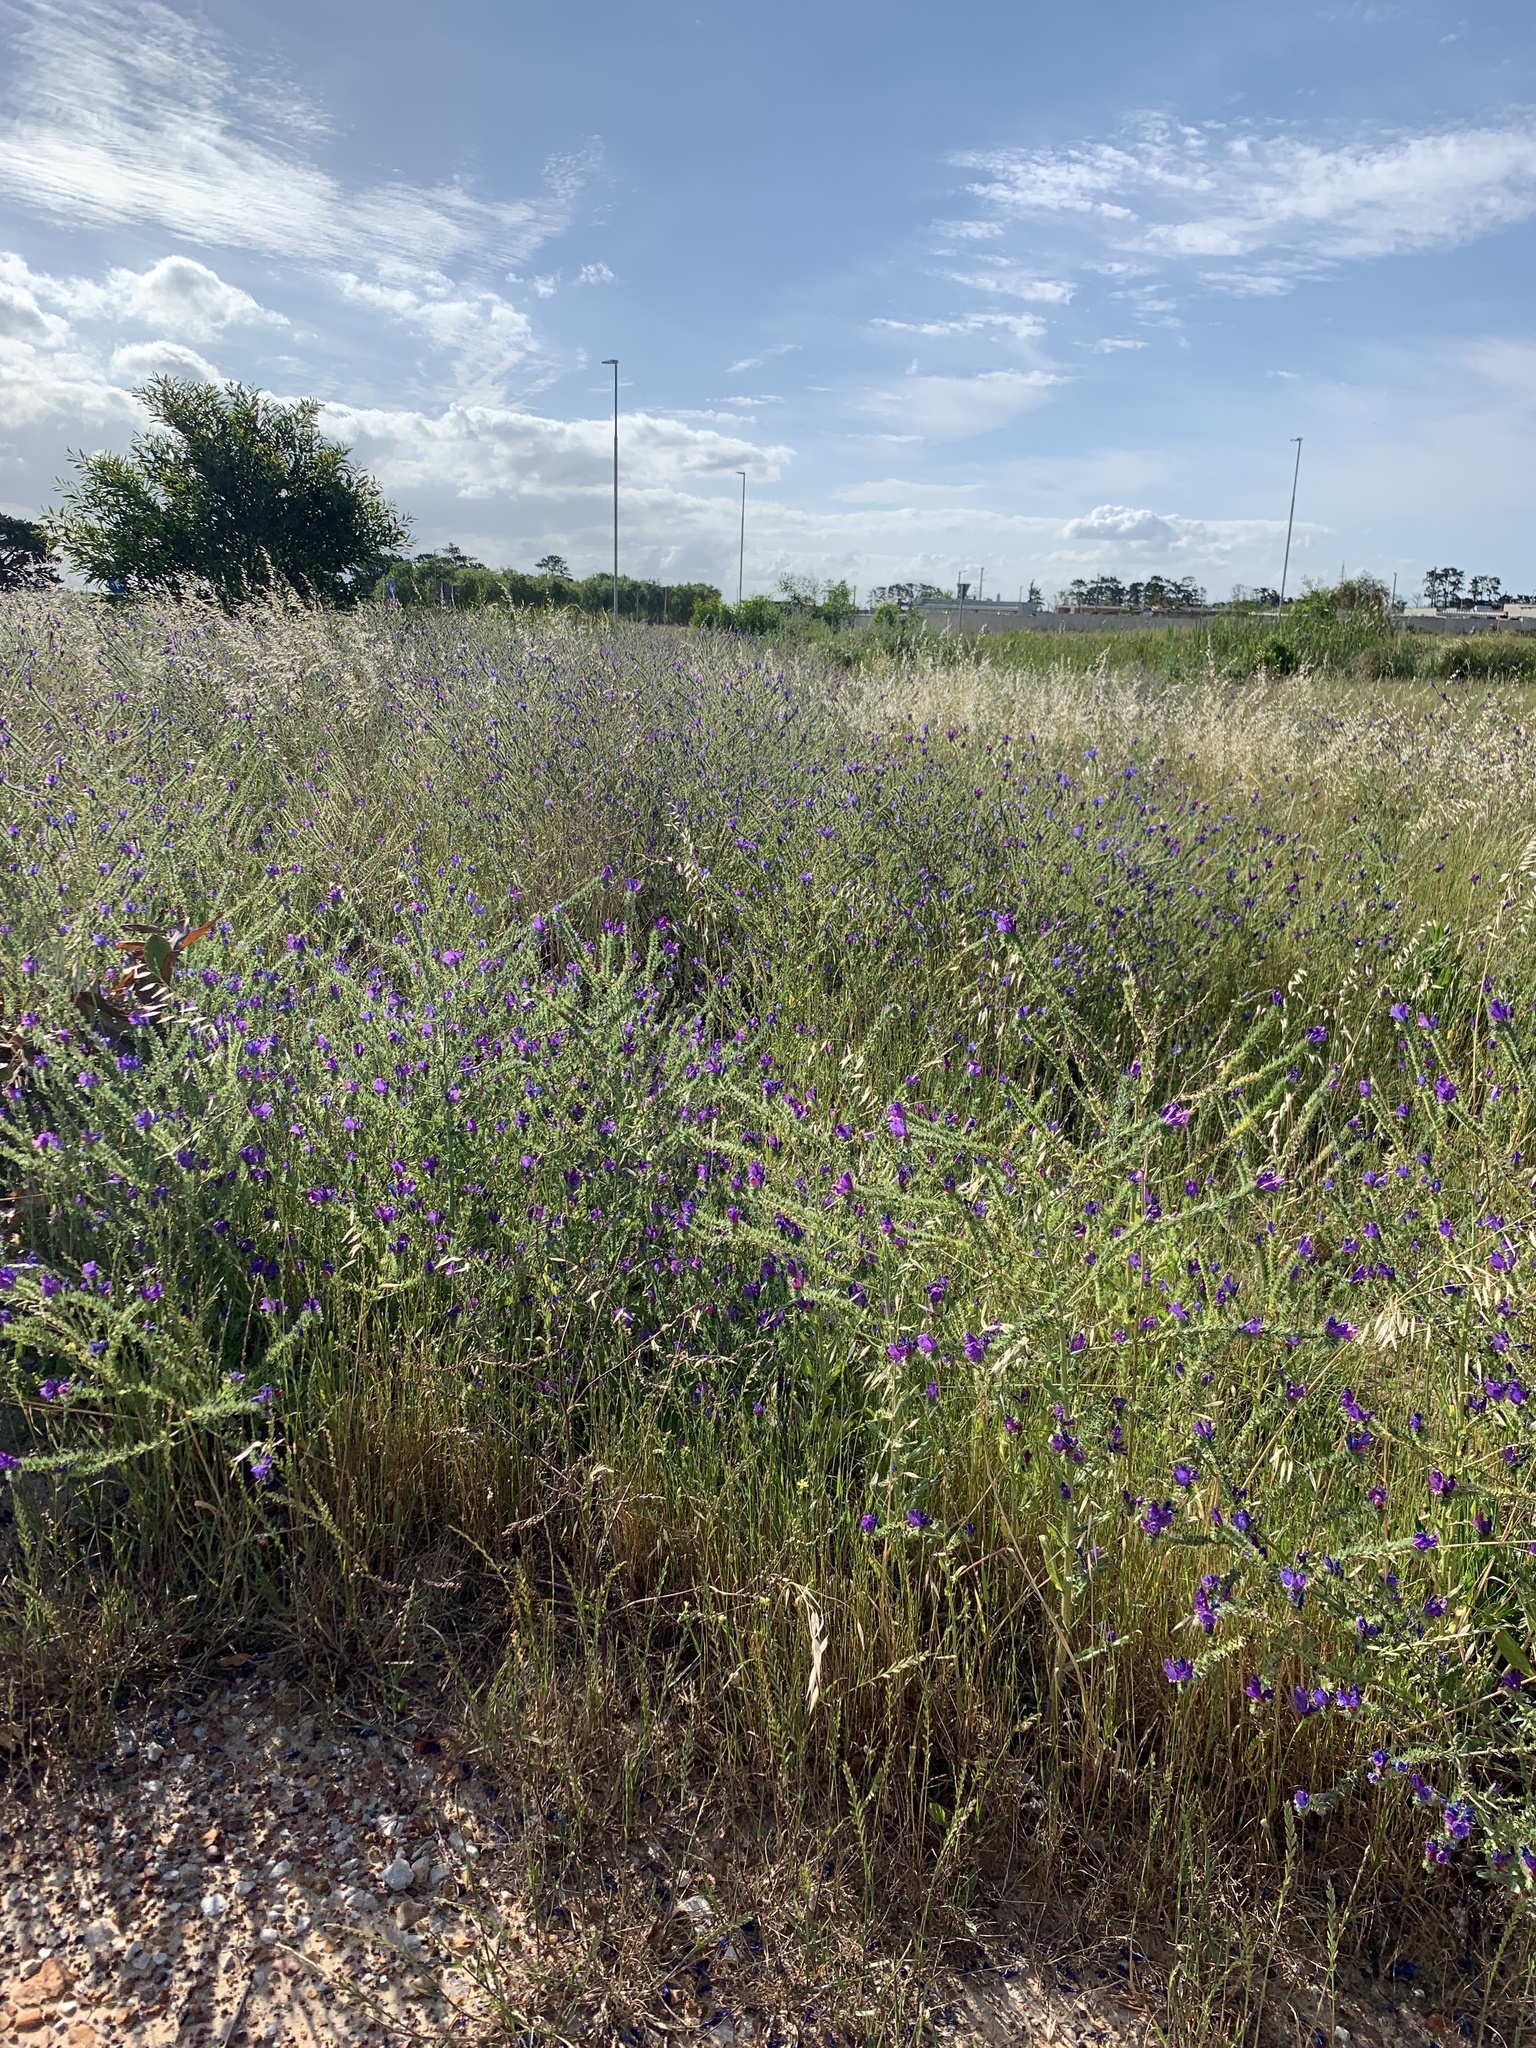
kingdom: Plantae
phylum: Tracheophyta
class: Magnoliopsida
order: Boraginales
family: Boraginaceae
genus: Echium
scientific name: Echium plantagineum
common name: Purple viper's-bugloss
